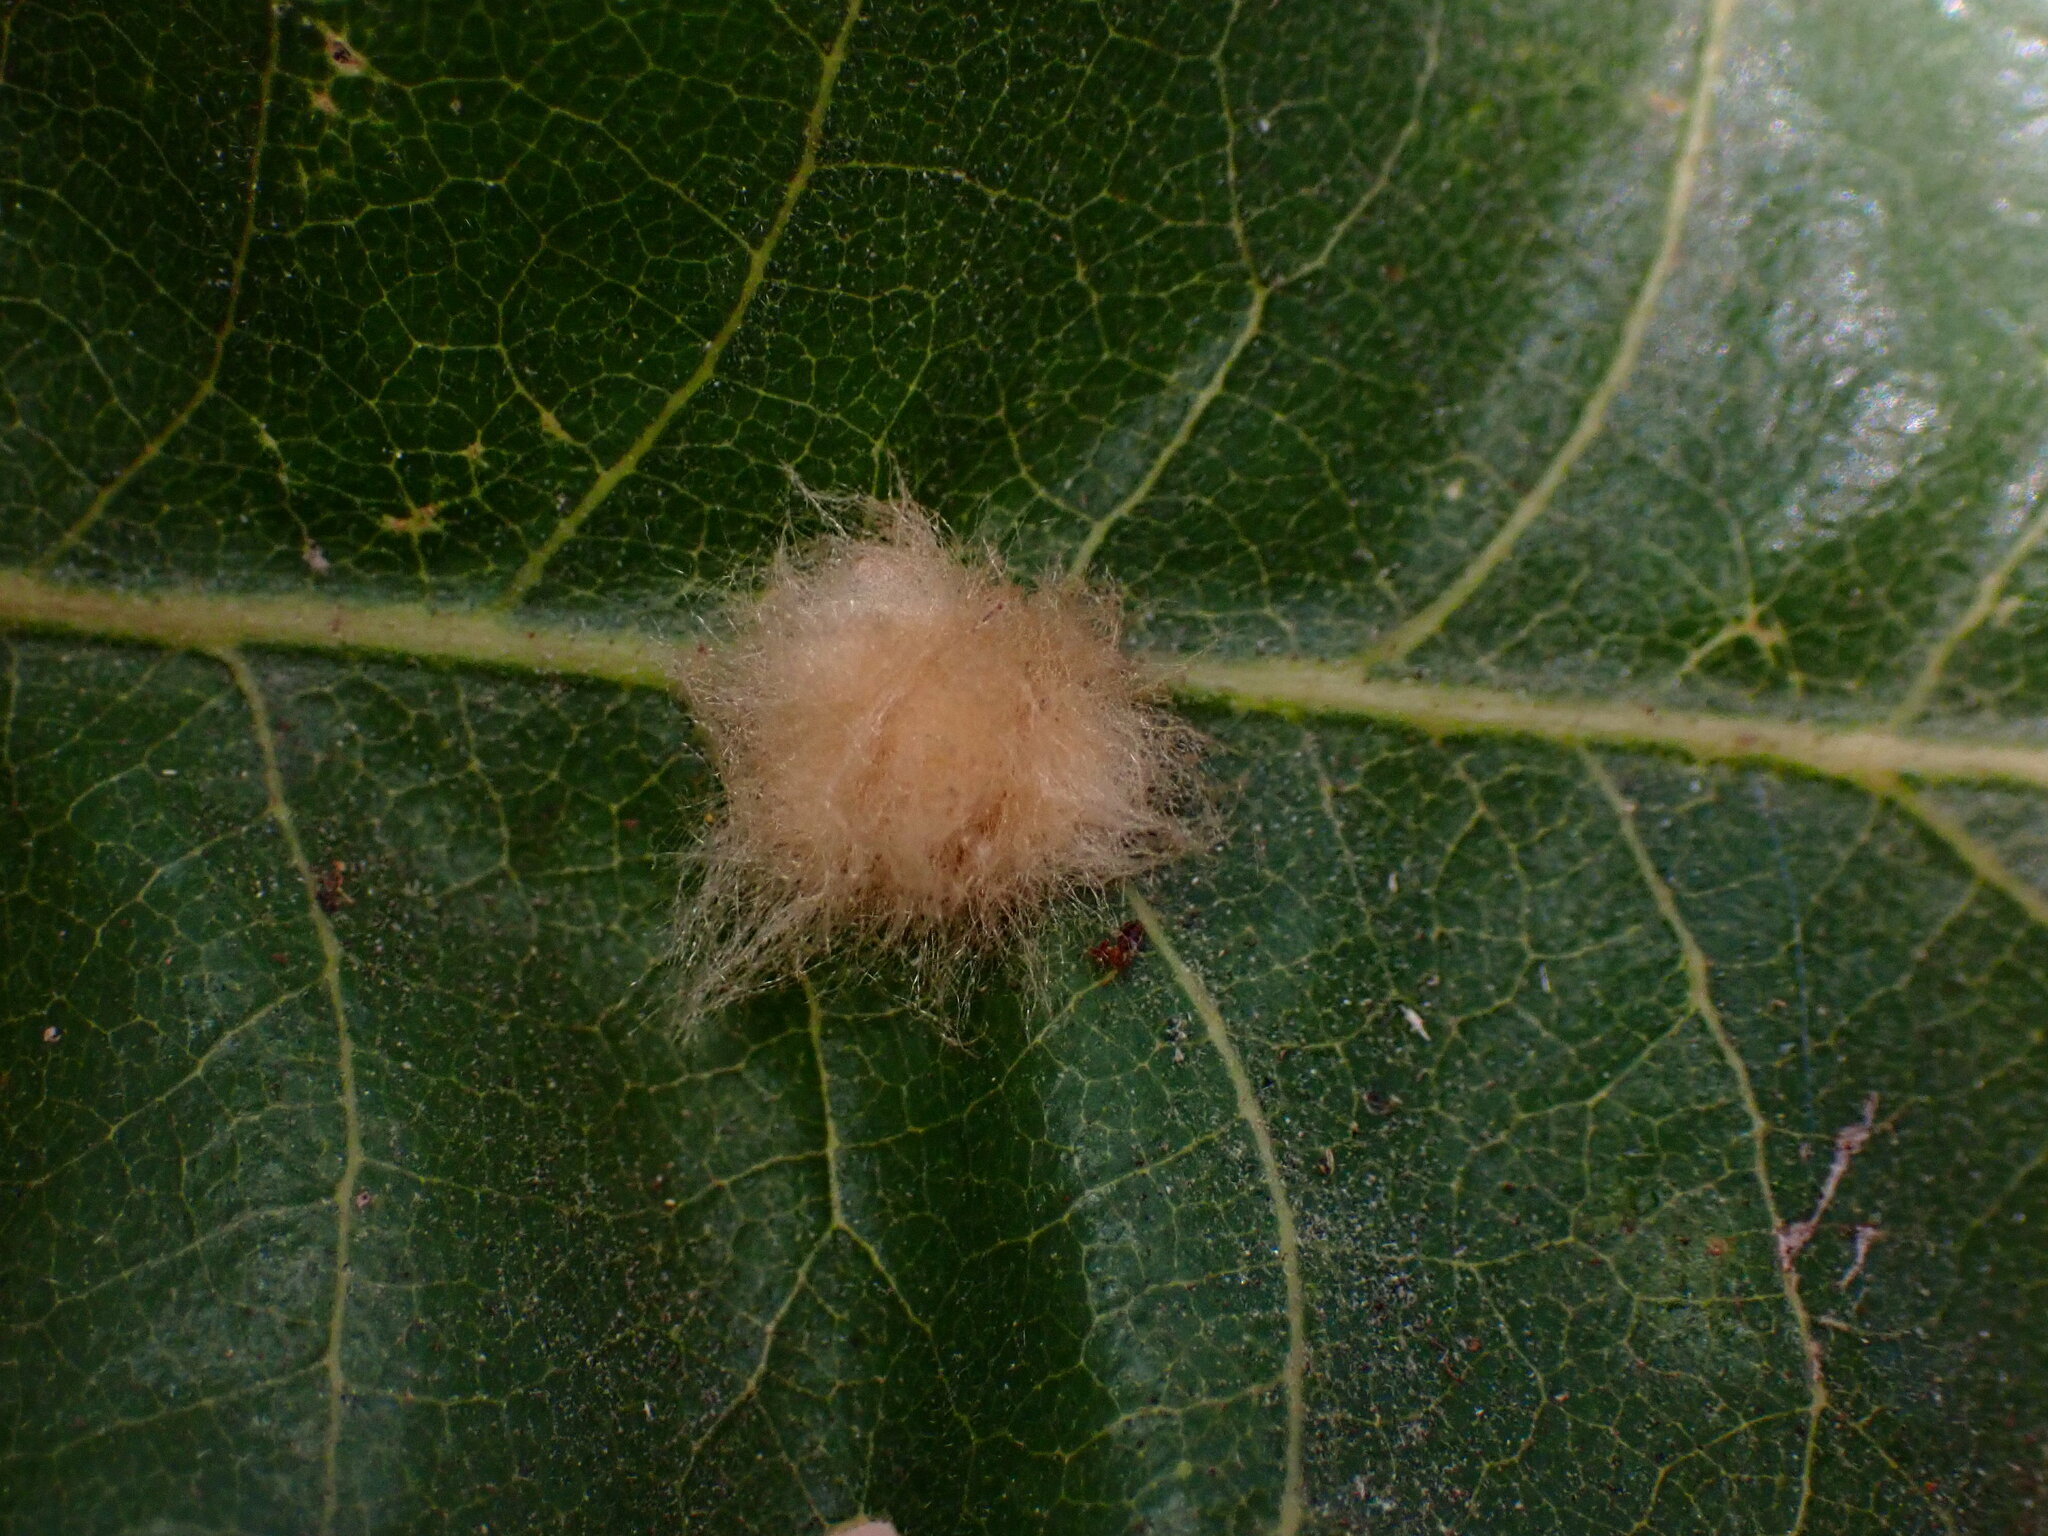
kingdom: Animalia
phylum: Arthropoda
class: Insecta
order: Hymenoptera
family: Cynipidae
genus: Andricus
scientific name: Andricus Druon fullawayi
